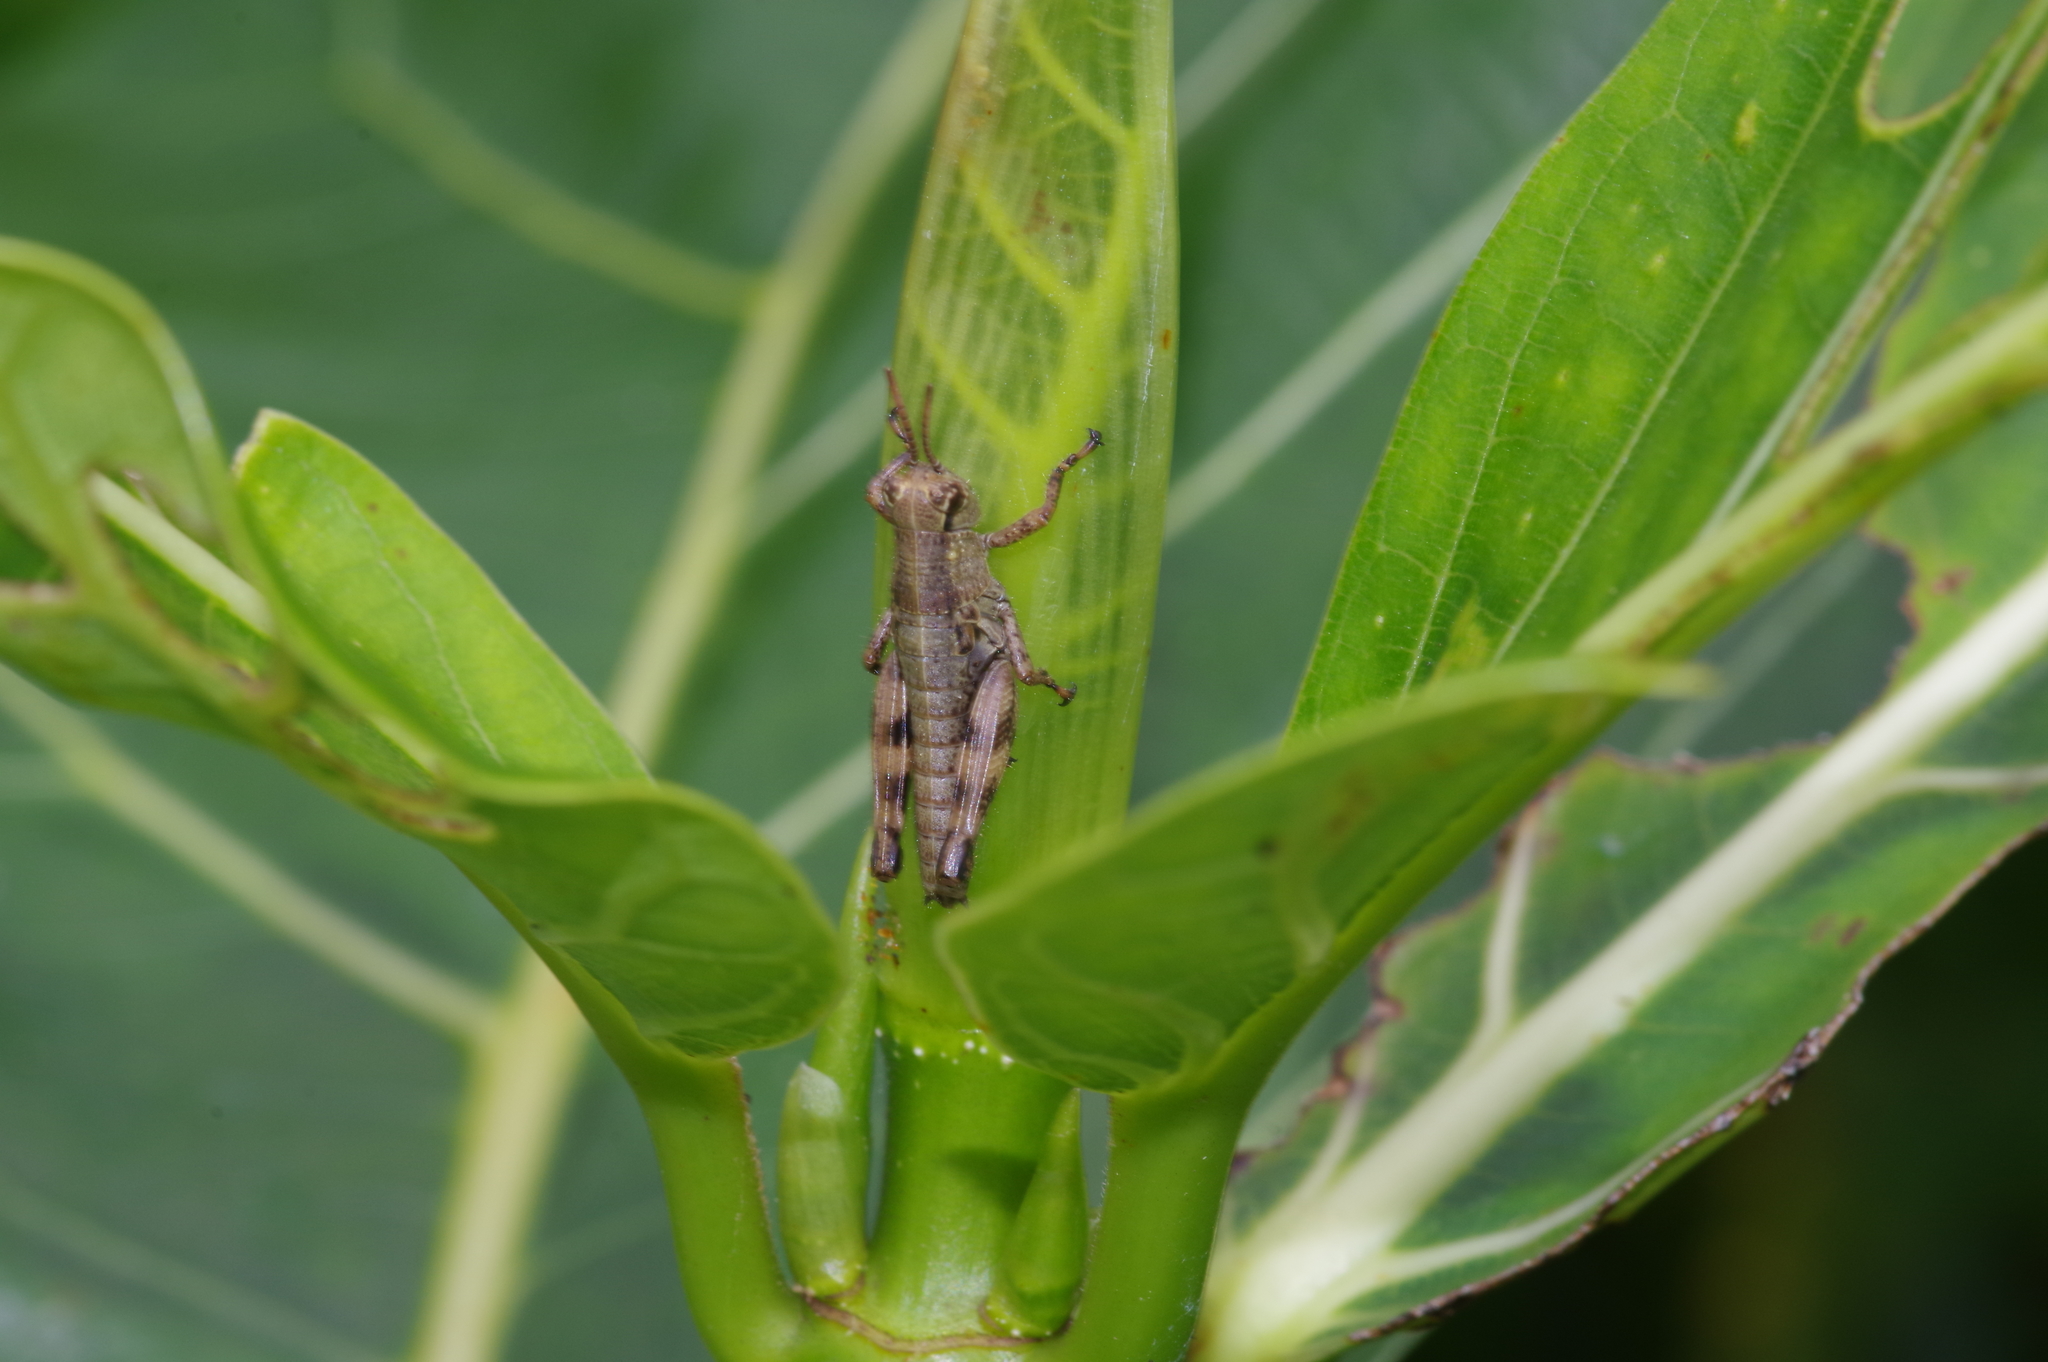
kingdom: Animalia
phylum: Arthropoda
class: Insecta
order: Orthoptera
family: Acrididae
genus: Fruhstorferiola
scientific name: Fruhstorferiola okinawaensis
